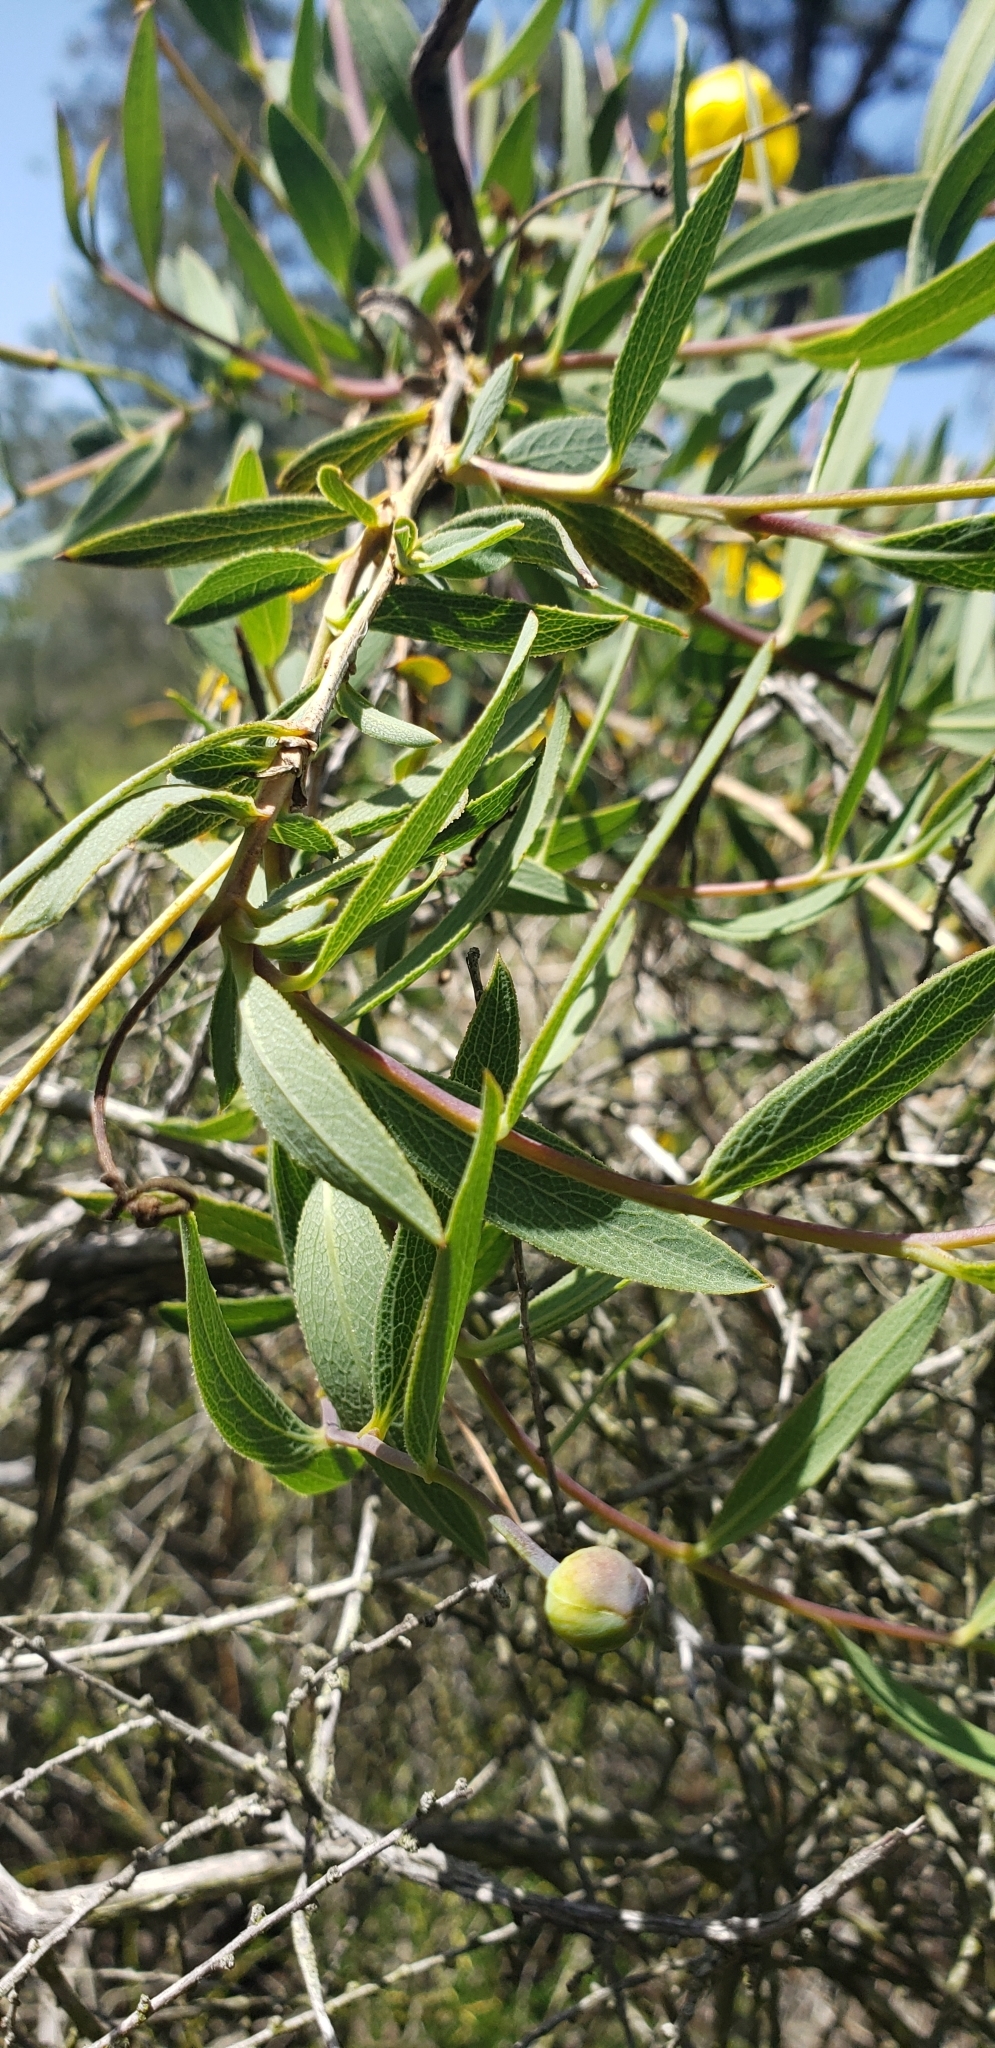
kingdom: Plantae
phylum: Tracheophyta
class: Magnoliopsida
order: Ranunculales
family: Papaveraceae
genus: Dendromecon
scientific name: Dendromecon rigida
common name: Tree poppy
